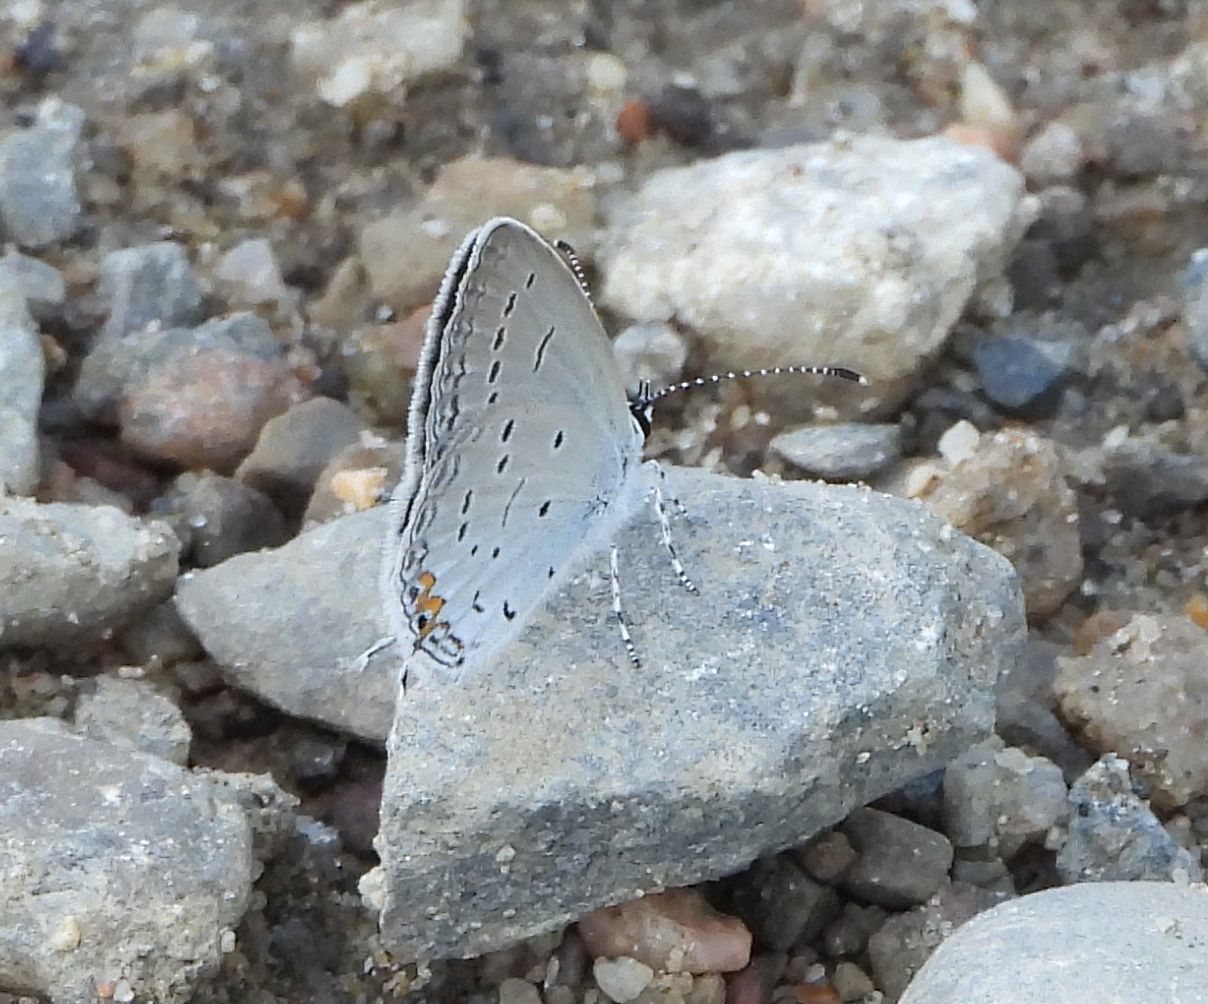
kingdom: Animalia
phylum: Arthropoda
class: Insecta
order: Lepidoptera
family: Lycaenidae
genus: Elkalyce
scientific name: Elkalyce comyntas
